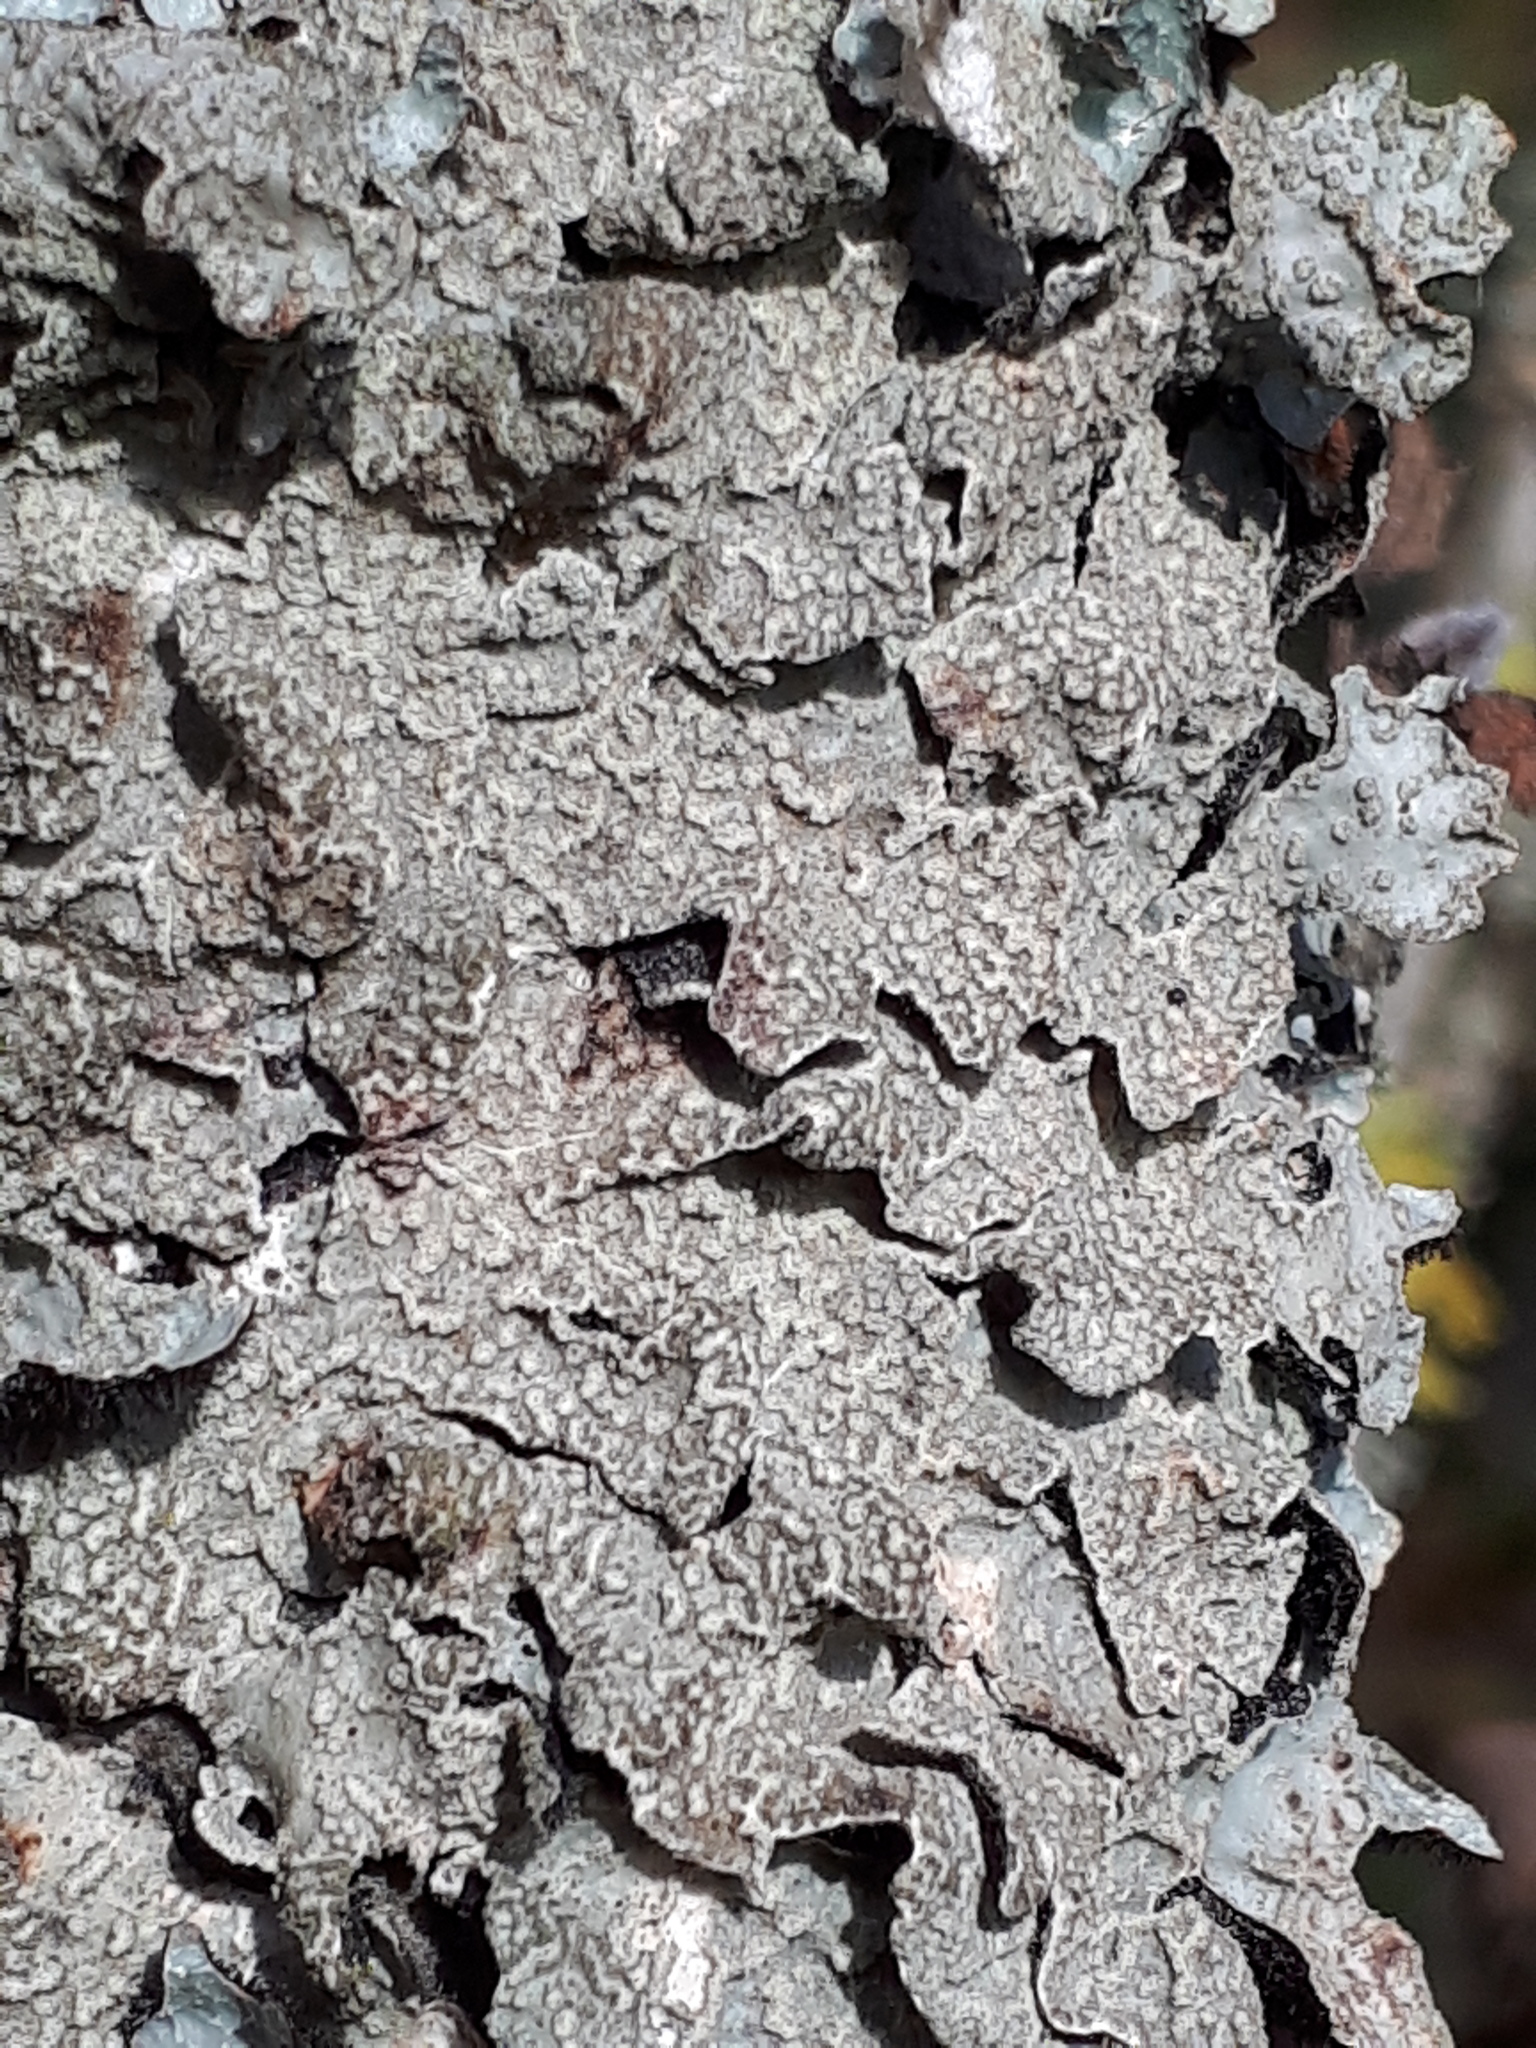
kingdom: Fungi
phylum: Ascomycota
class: Lecanoromycetes
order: Lecanorales
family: Parmeliaceae
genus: Parmelia
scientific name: Parmelia sulcata
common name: Netted shield lichen
